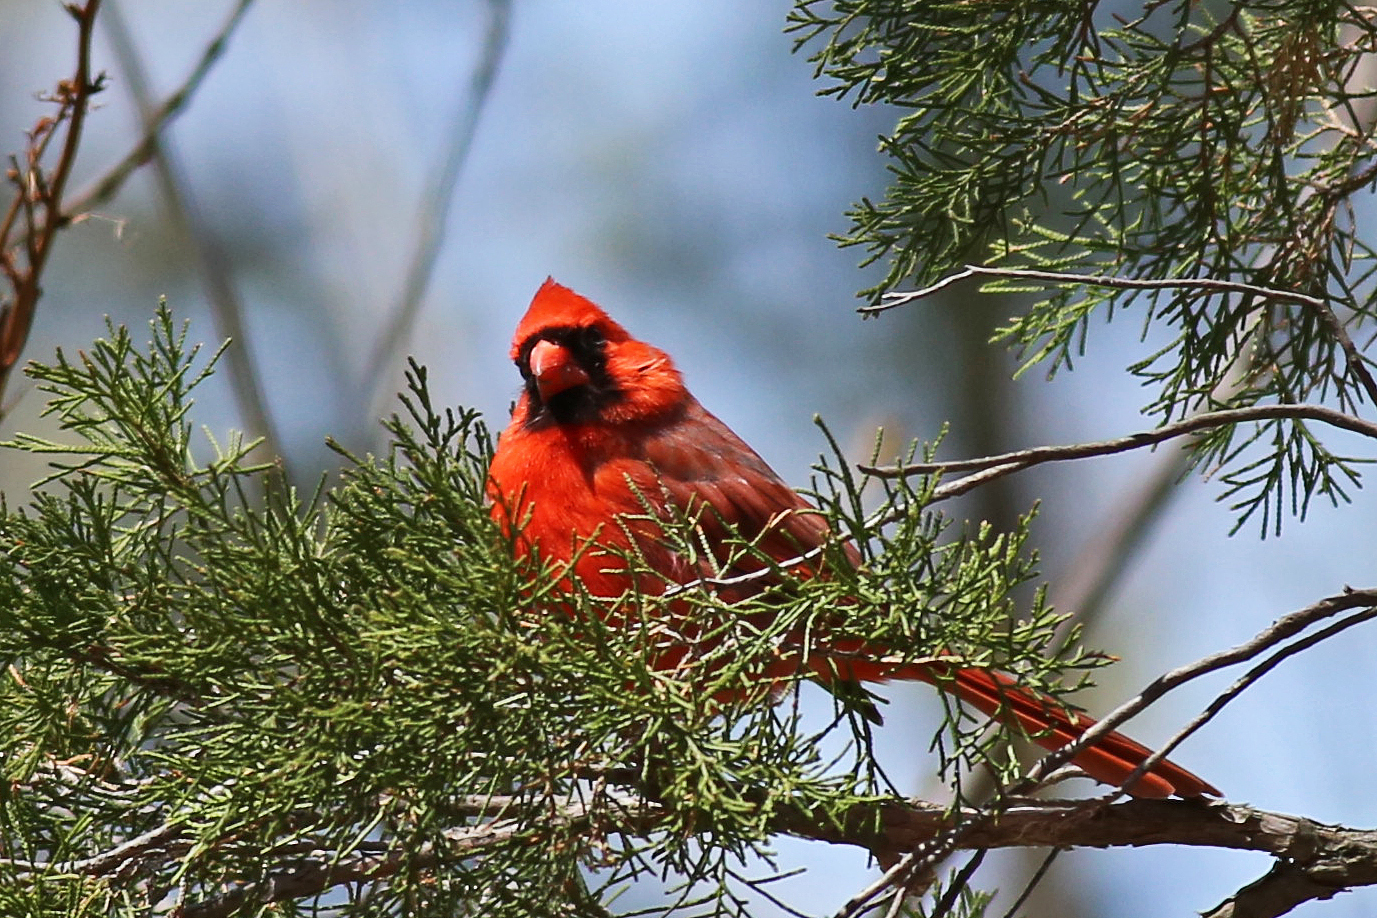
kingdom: Animalia
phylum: Chordata
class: Aves
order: Passeriformes
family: Cardinalidae
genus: Cardinalis
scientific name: Cardinalis cardinalis
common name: Northern cardinal
